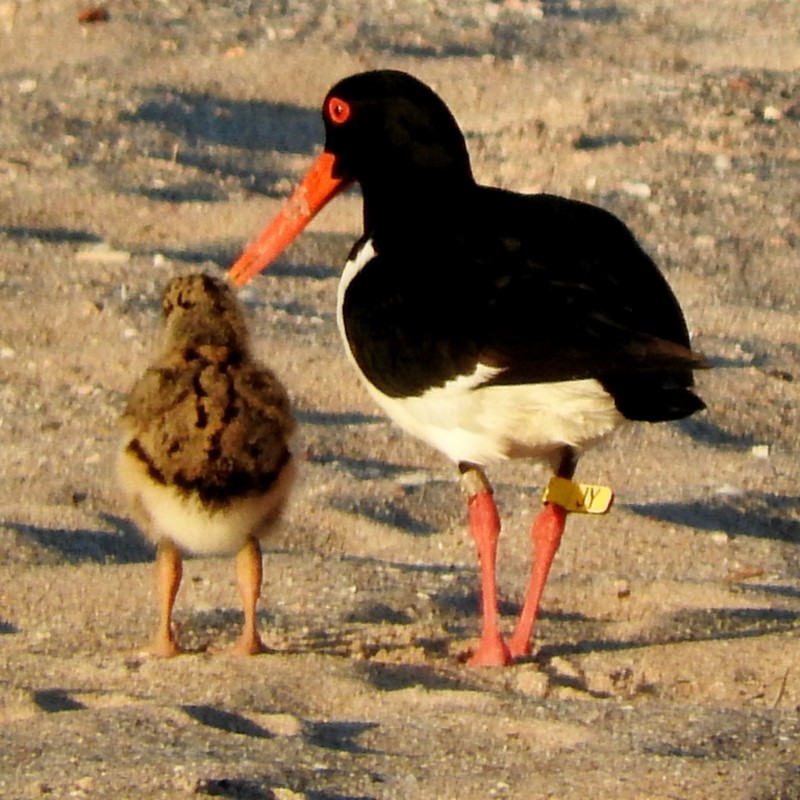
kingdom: Animalia
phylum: Chordata
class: Aves
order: Charadriiformes
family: Haematopodidae
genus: Haematopus
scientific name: Haematopus longirostris
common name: Pied oystercatcher
